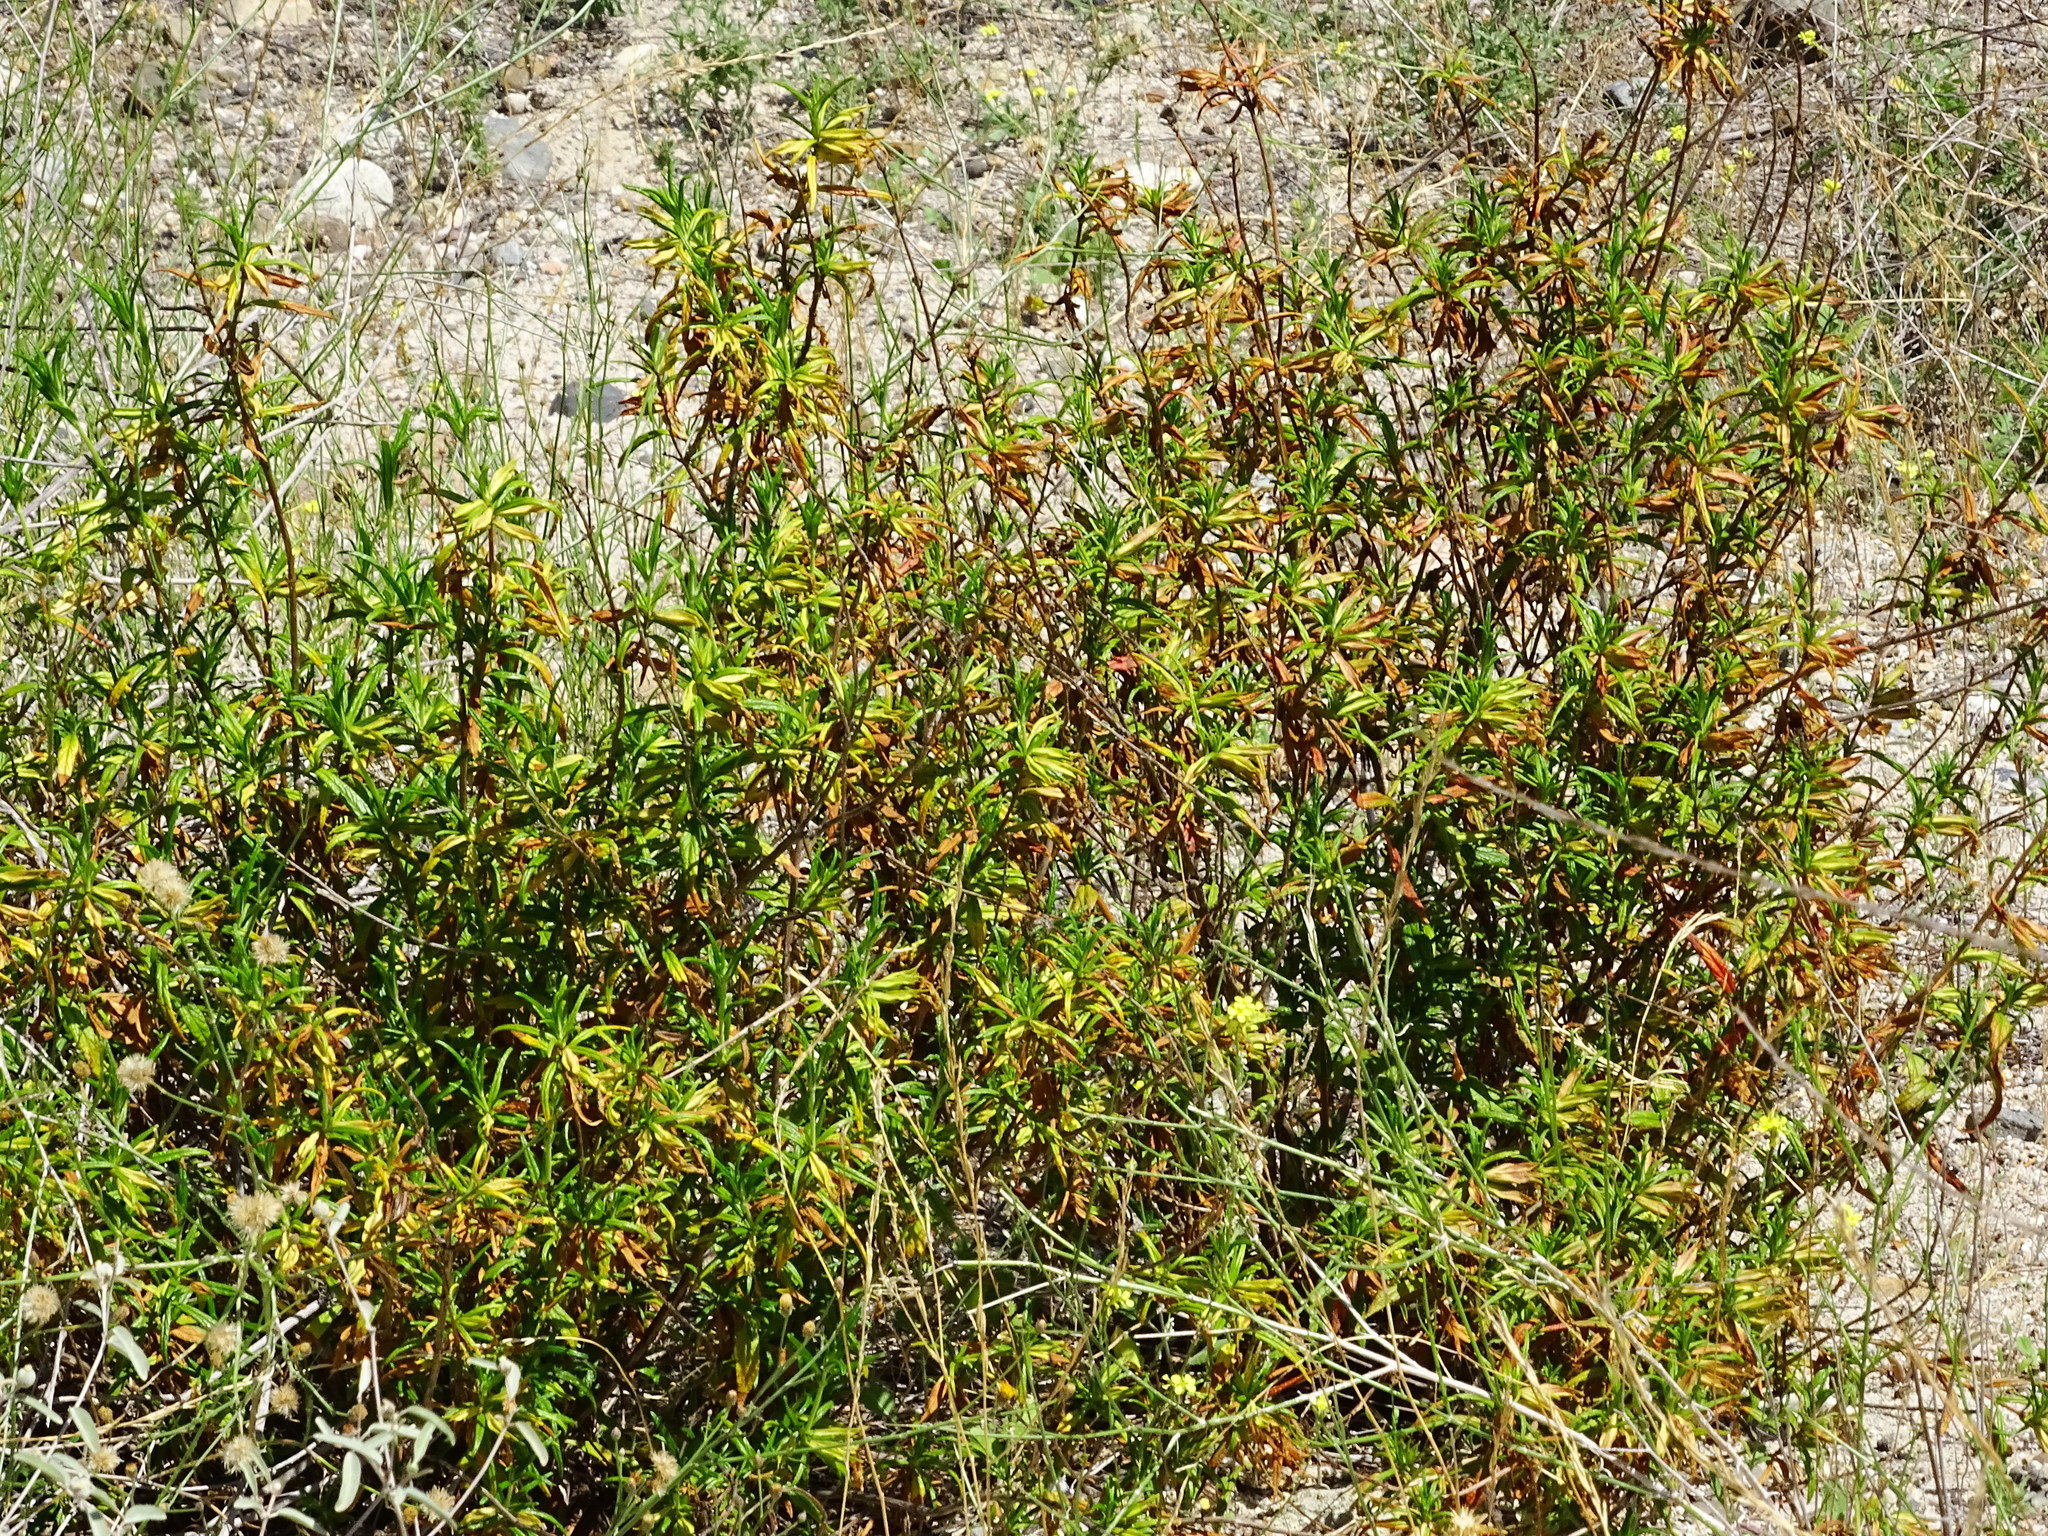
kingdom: Plantae
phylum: Tracheophyta
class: Magnoliopsida
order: Lamiales
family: Phrymaceae
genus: Diplacus
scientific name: Diplacus australis
